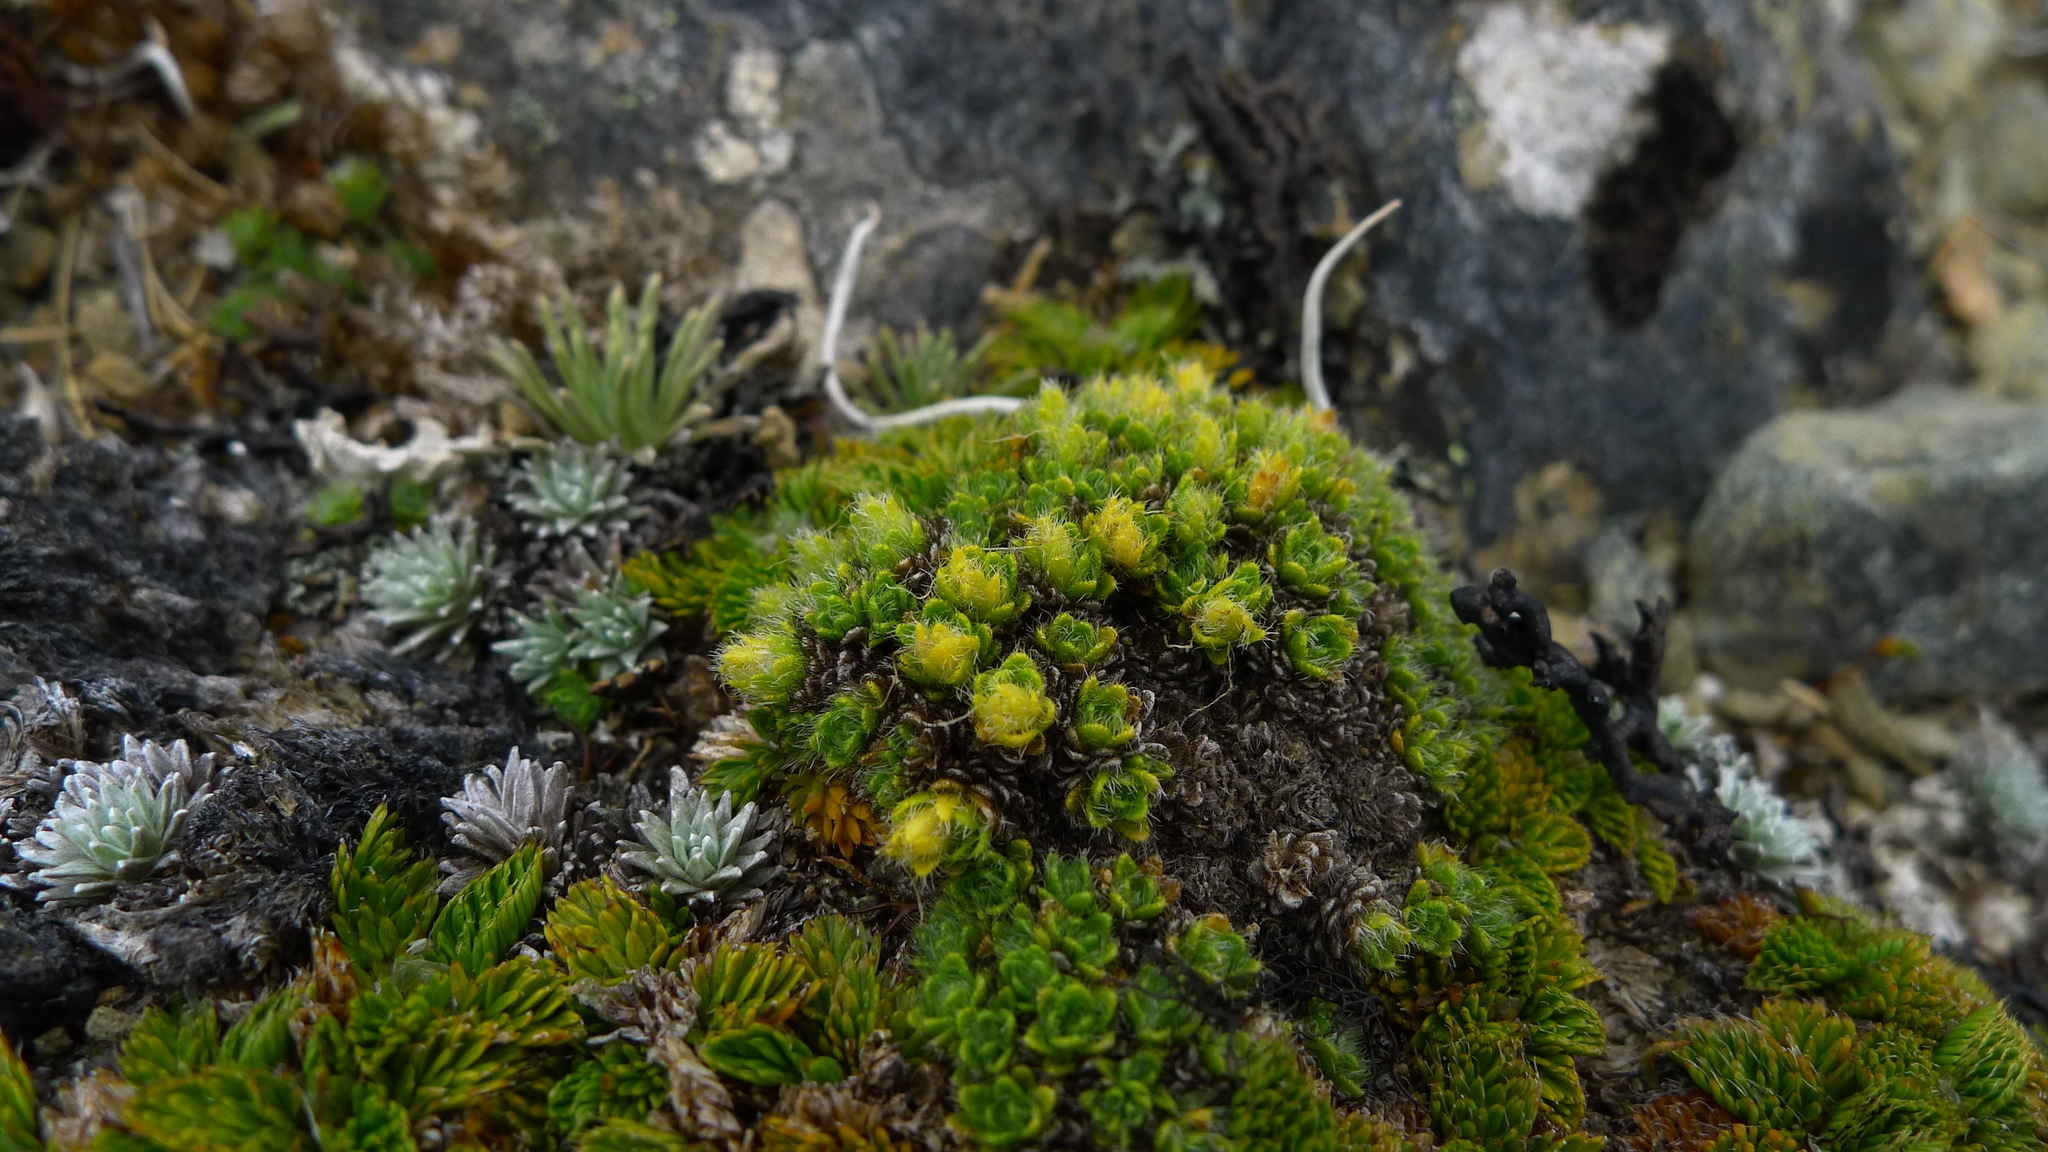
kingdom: Plantae
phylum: Tracheophyta
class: Magnoliopsida
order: Lamiales
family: Plantaginaceae
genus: Veronica
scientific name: Veronica pulvinaris
